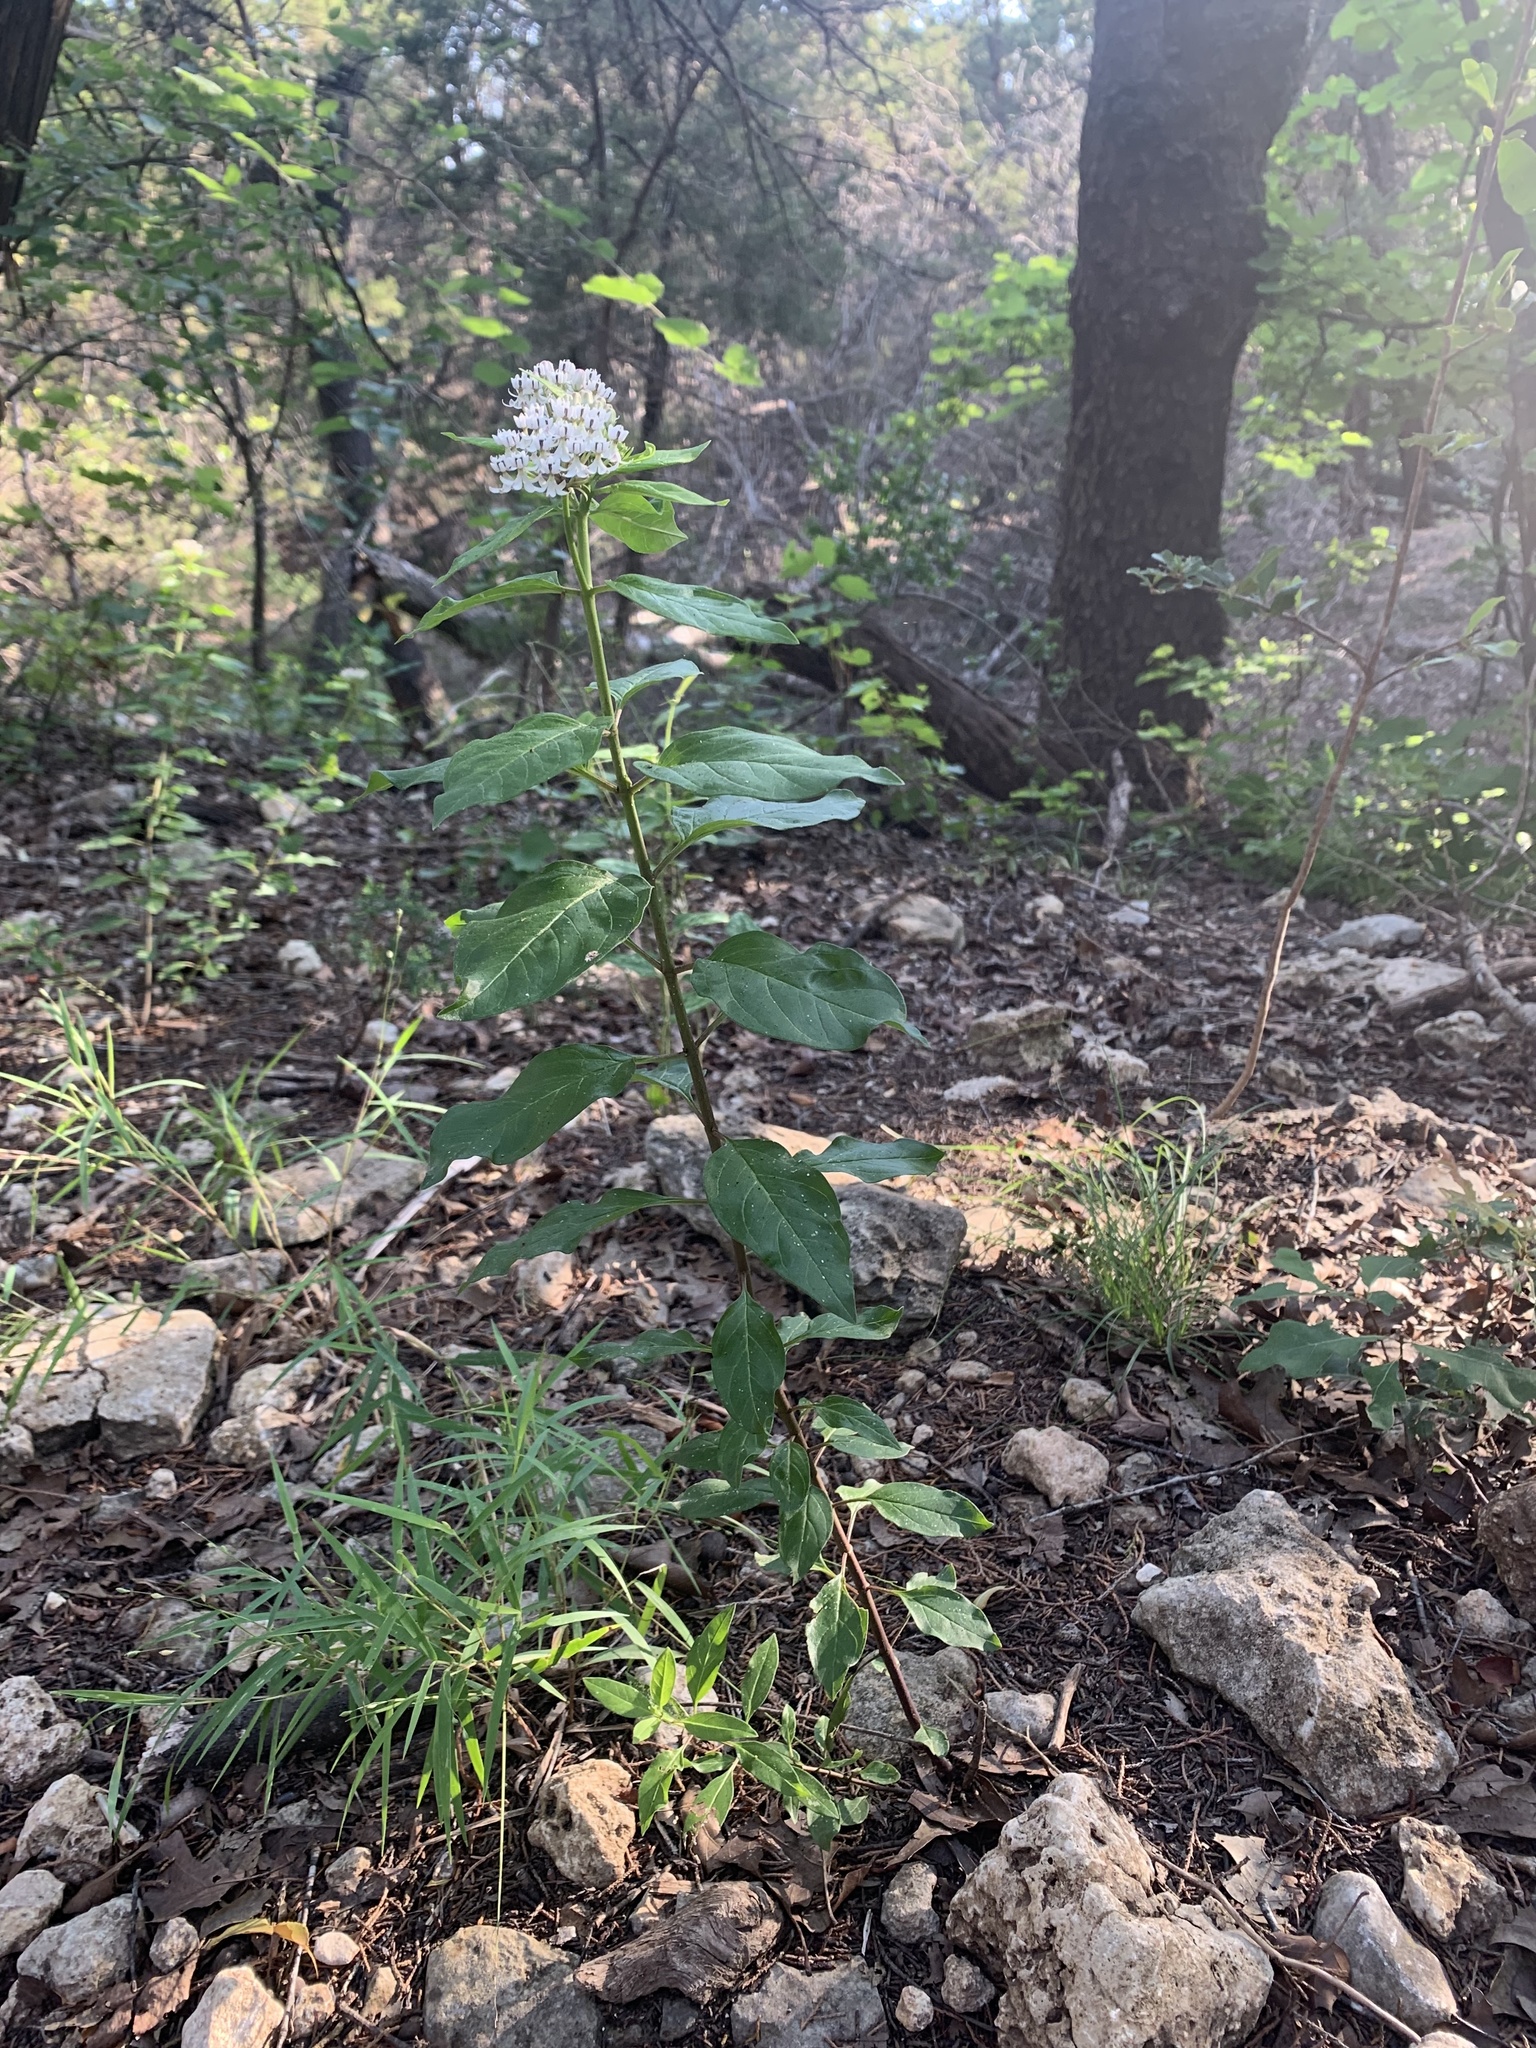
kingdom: Plantae
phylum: Tracheophyta
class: Magnoliopsida
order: Gentianales
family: Apocynaceae
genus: Asclepias
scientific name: Asclepias texana
